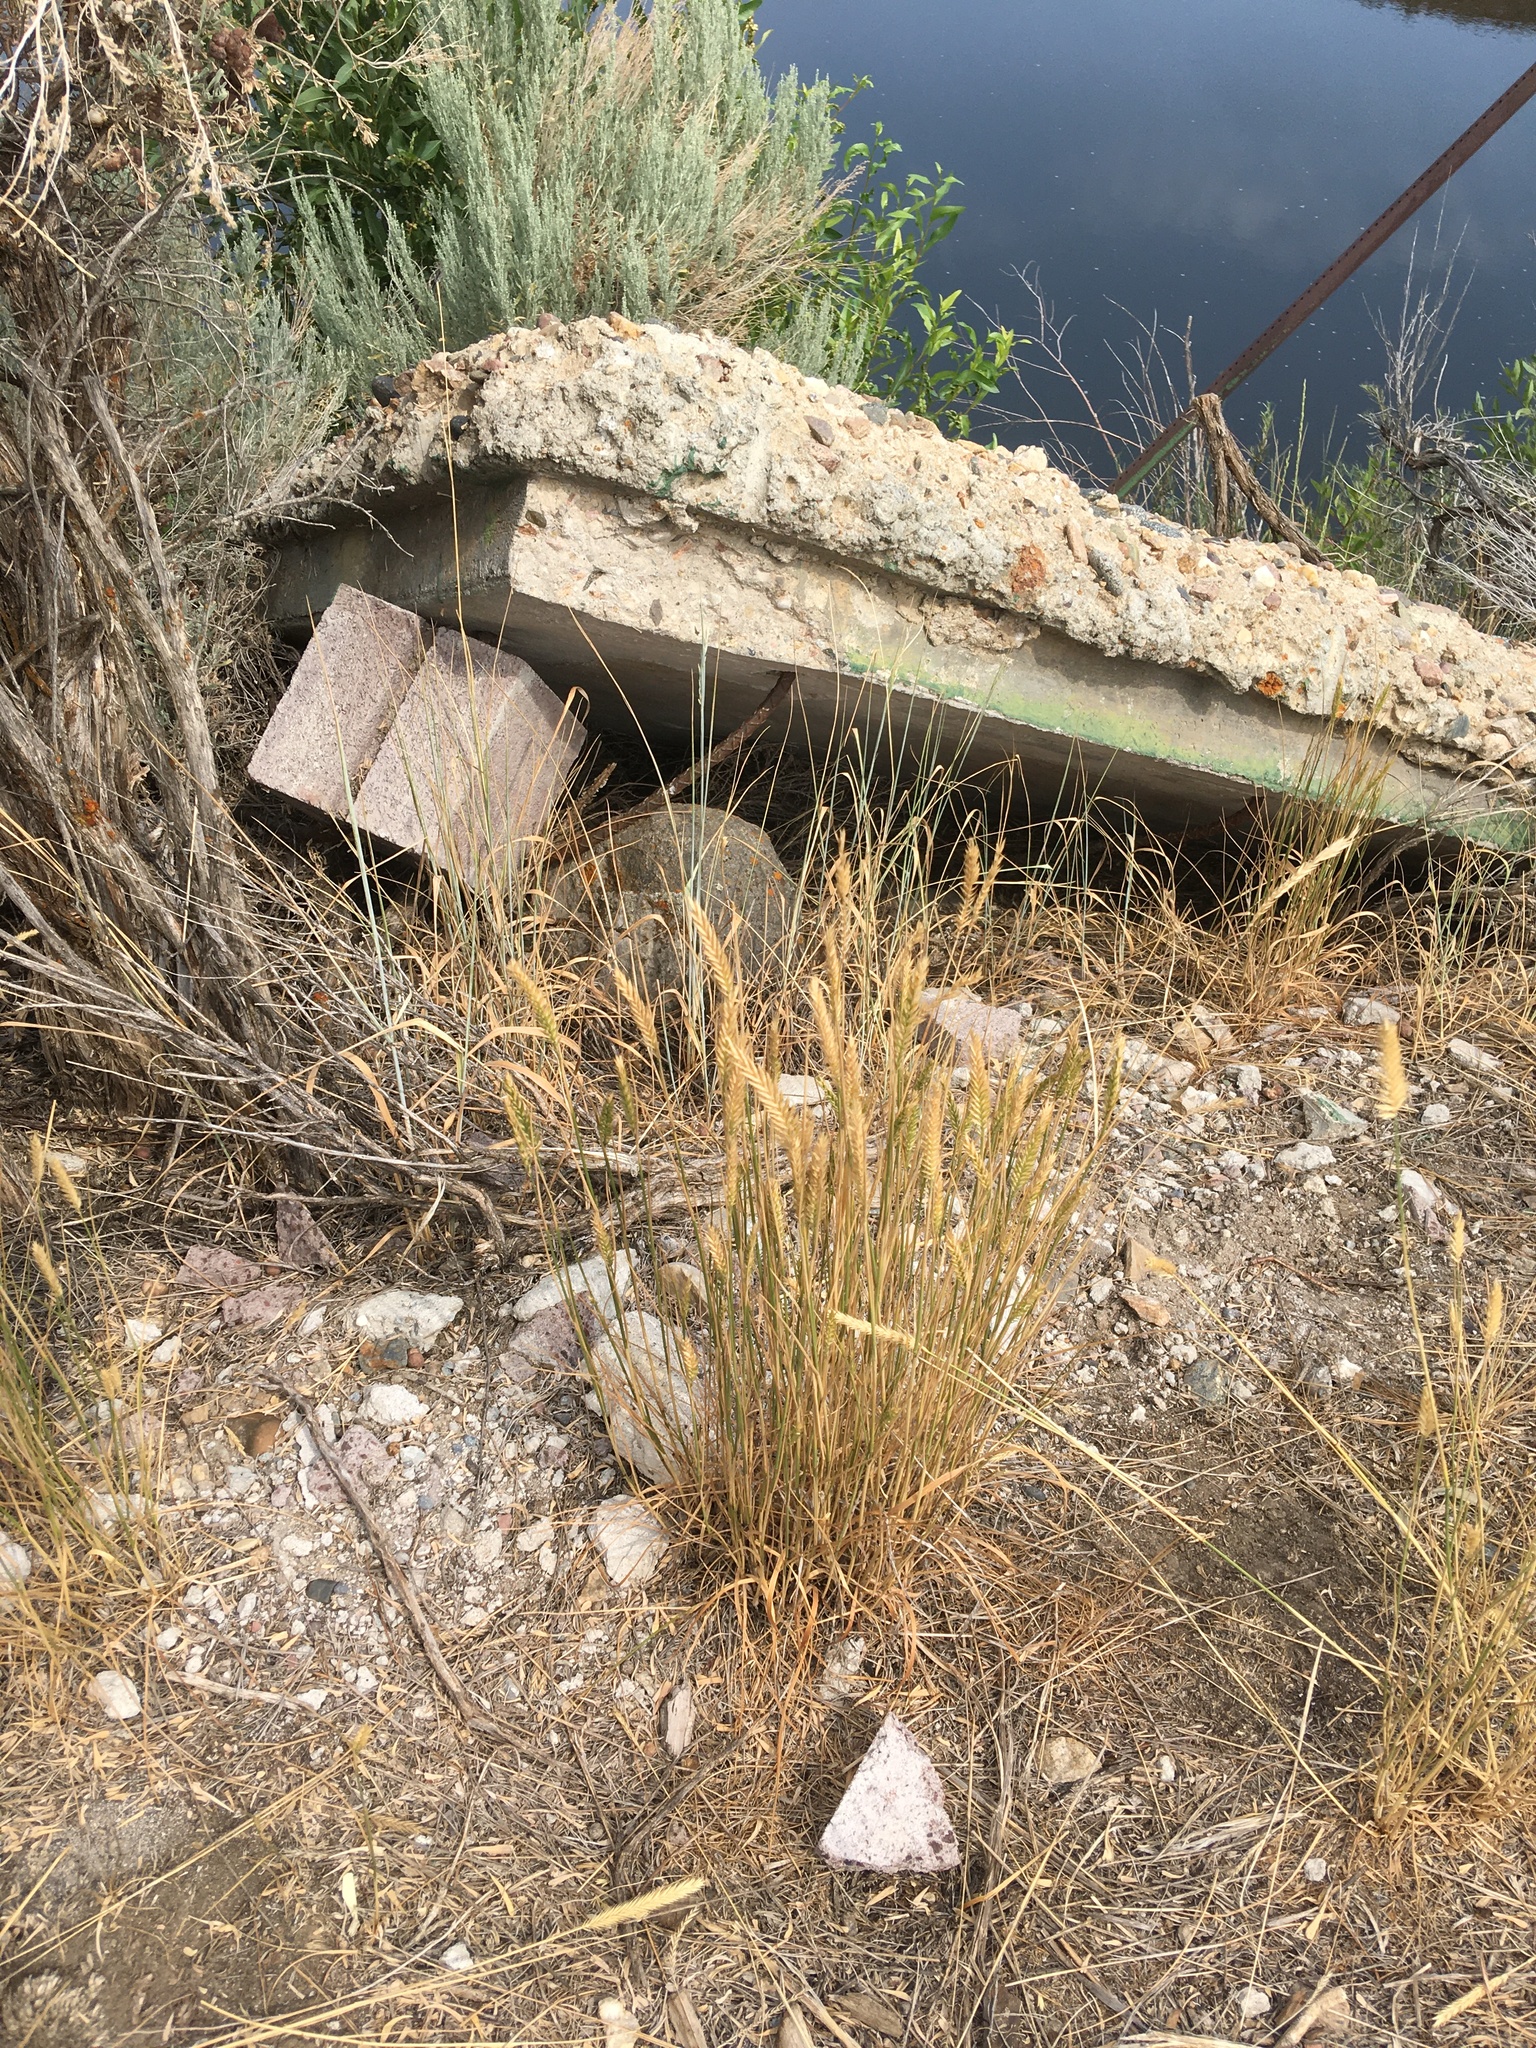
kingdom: Plantae
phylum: Tracheophyta
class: Liliopsida
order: Poales
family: Poaceae
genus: Agropyron
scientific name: Agropyron cristatum
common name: Crested wheatgrass
